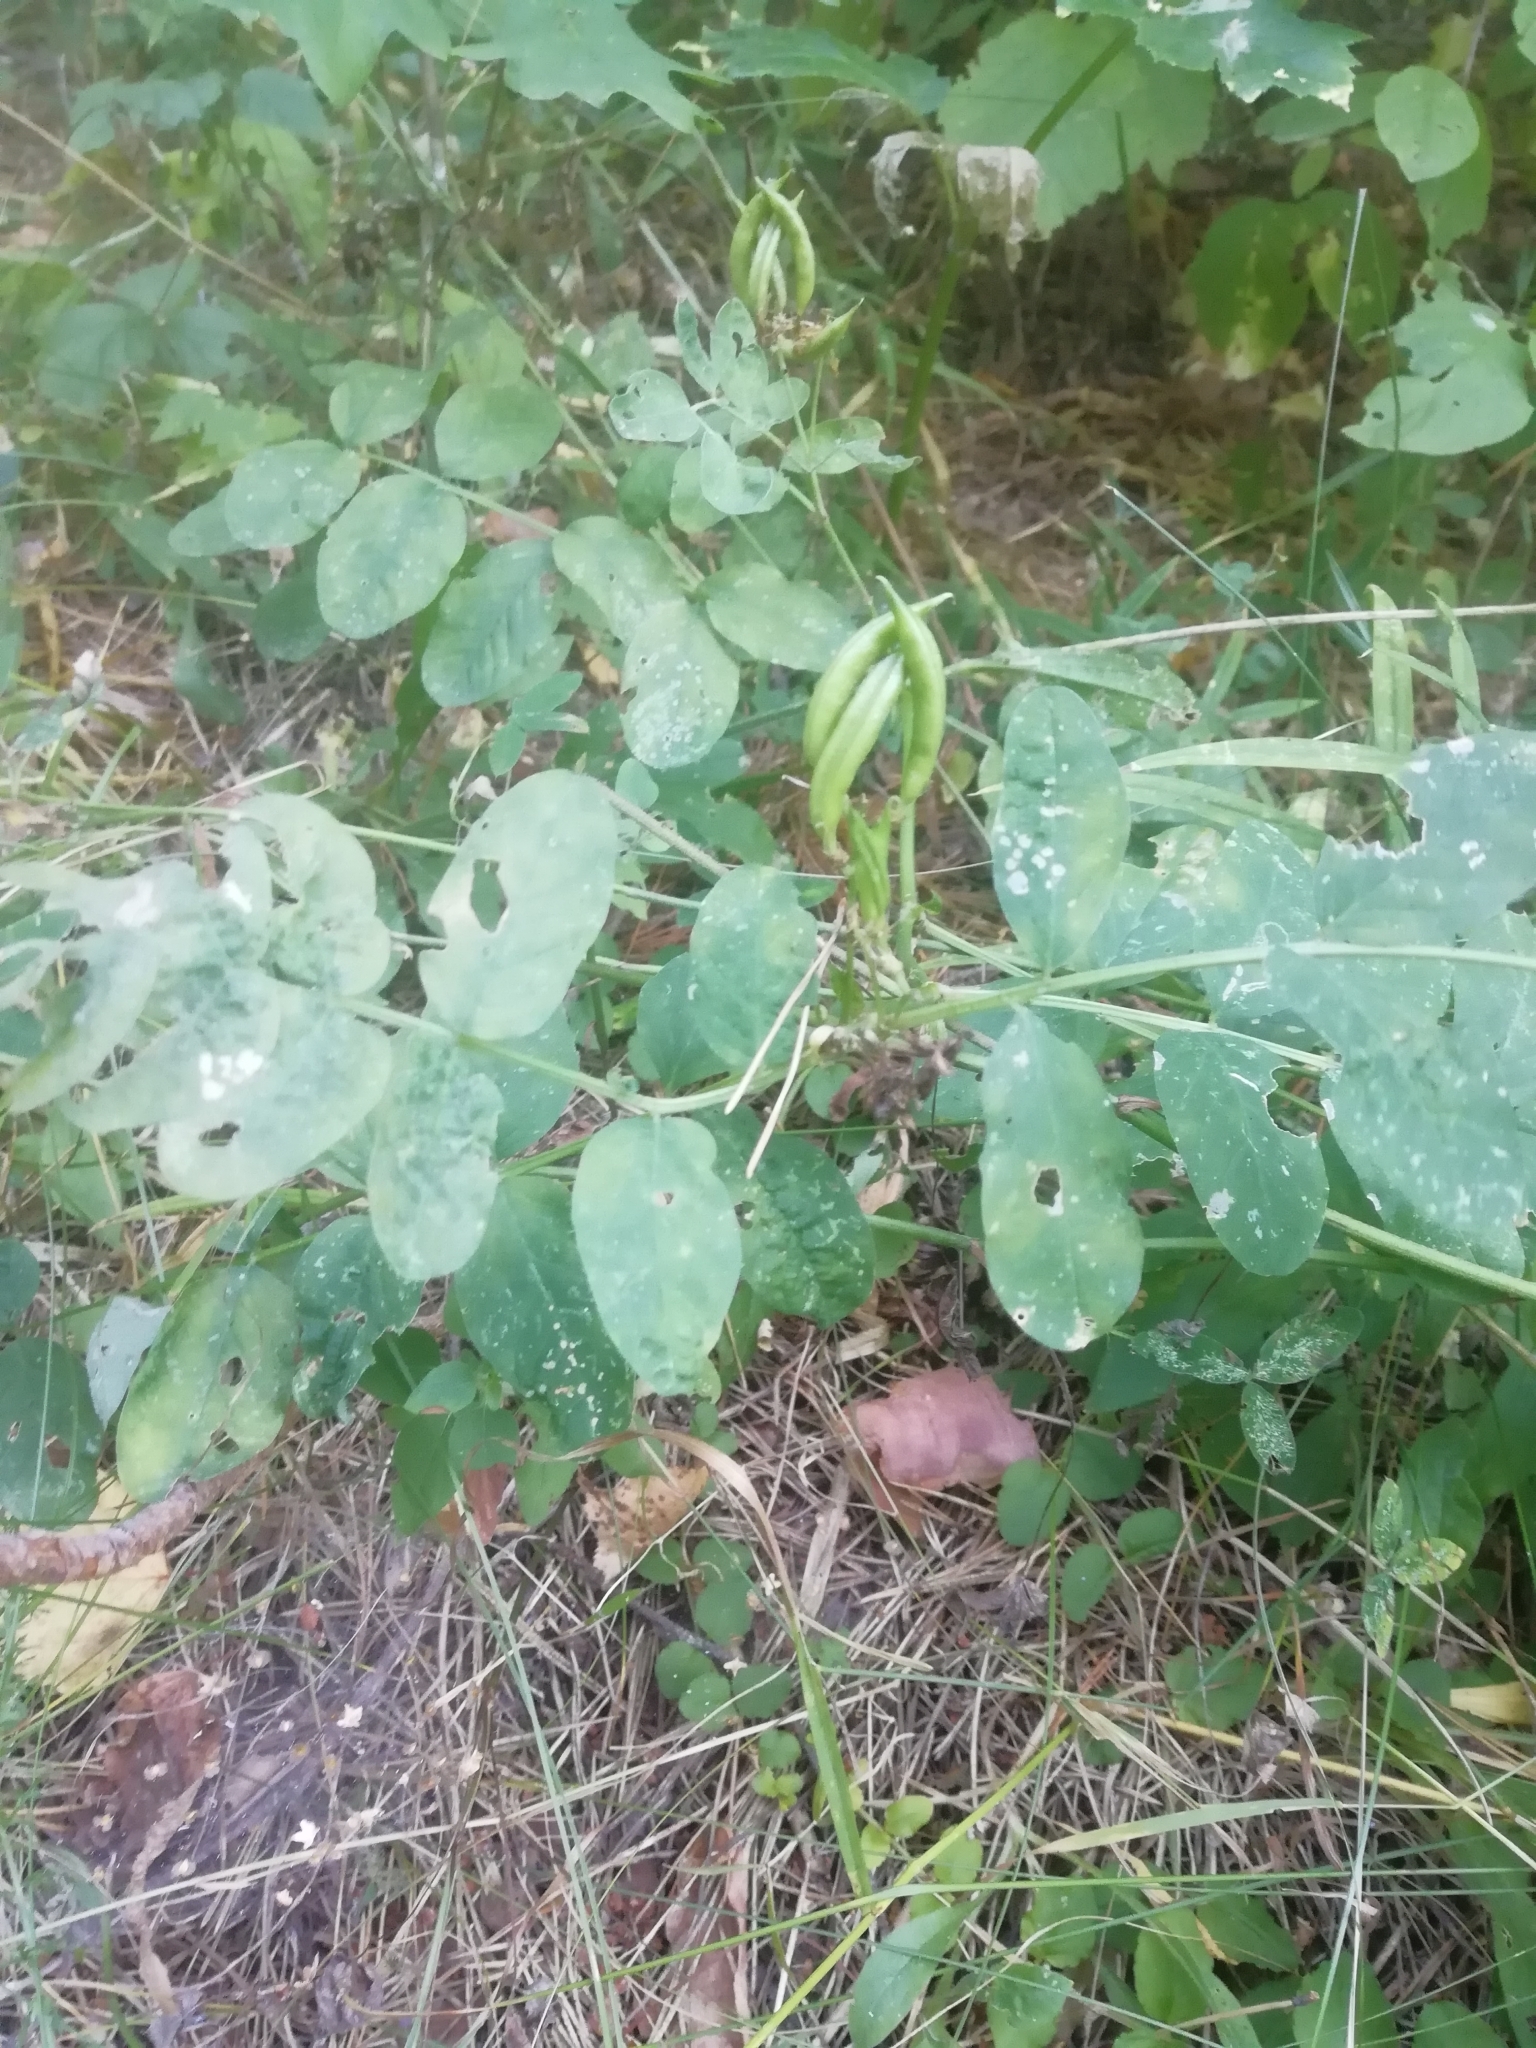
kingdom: Plantae
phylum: Tracheophyta
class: Magnoliopsida
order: Fabales
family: Fabaceae
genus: Astragalus
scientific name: Astragalus glycyphyllos
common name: Wild liquorice
